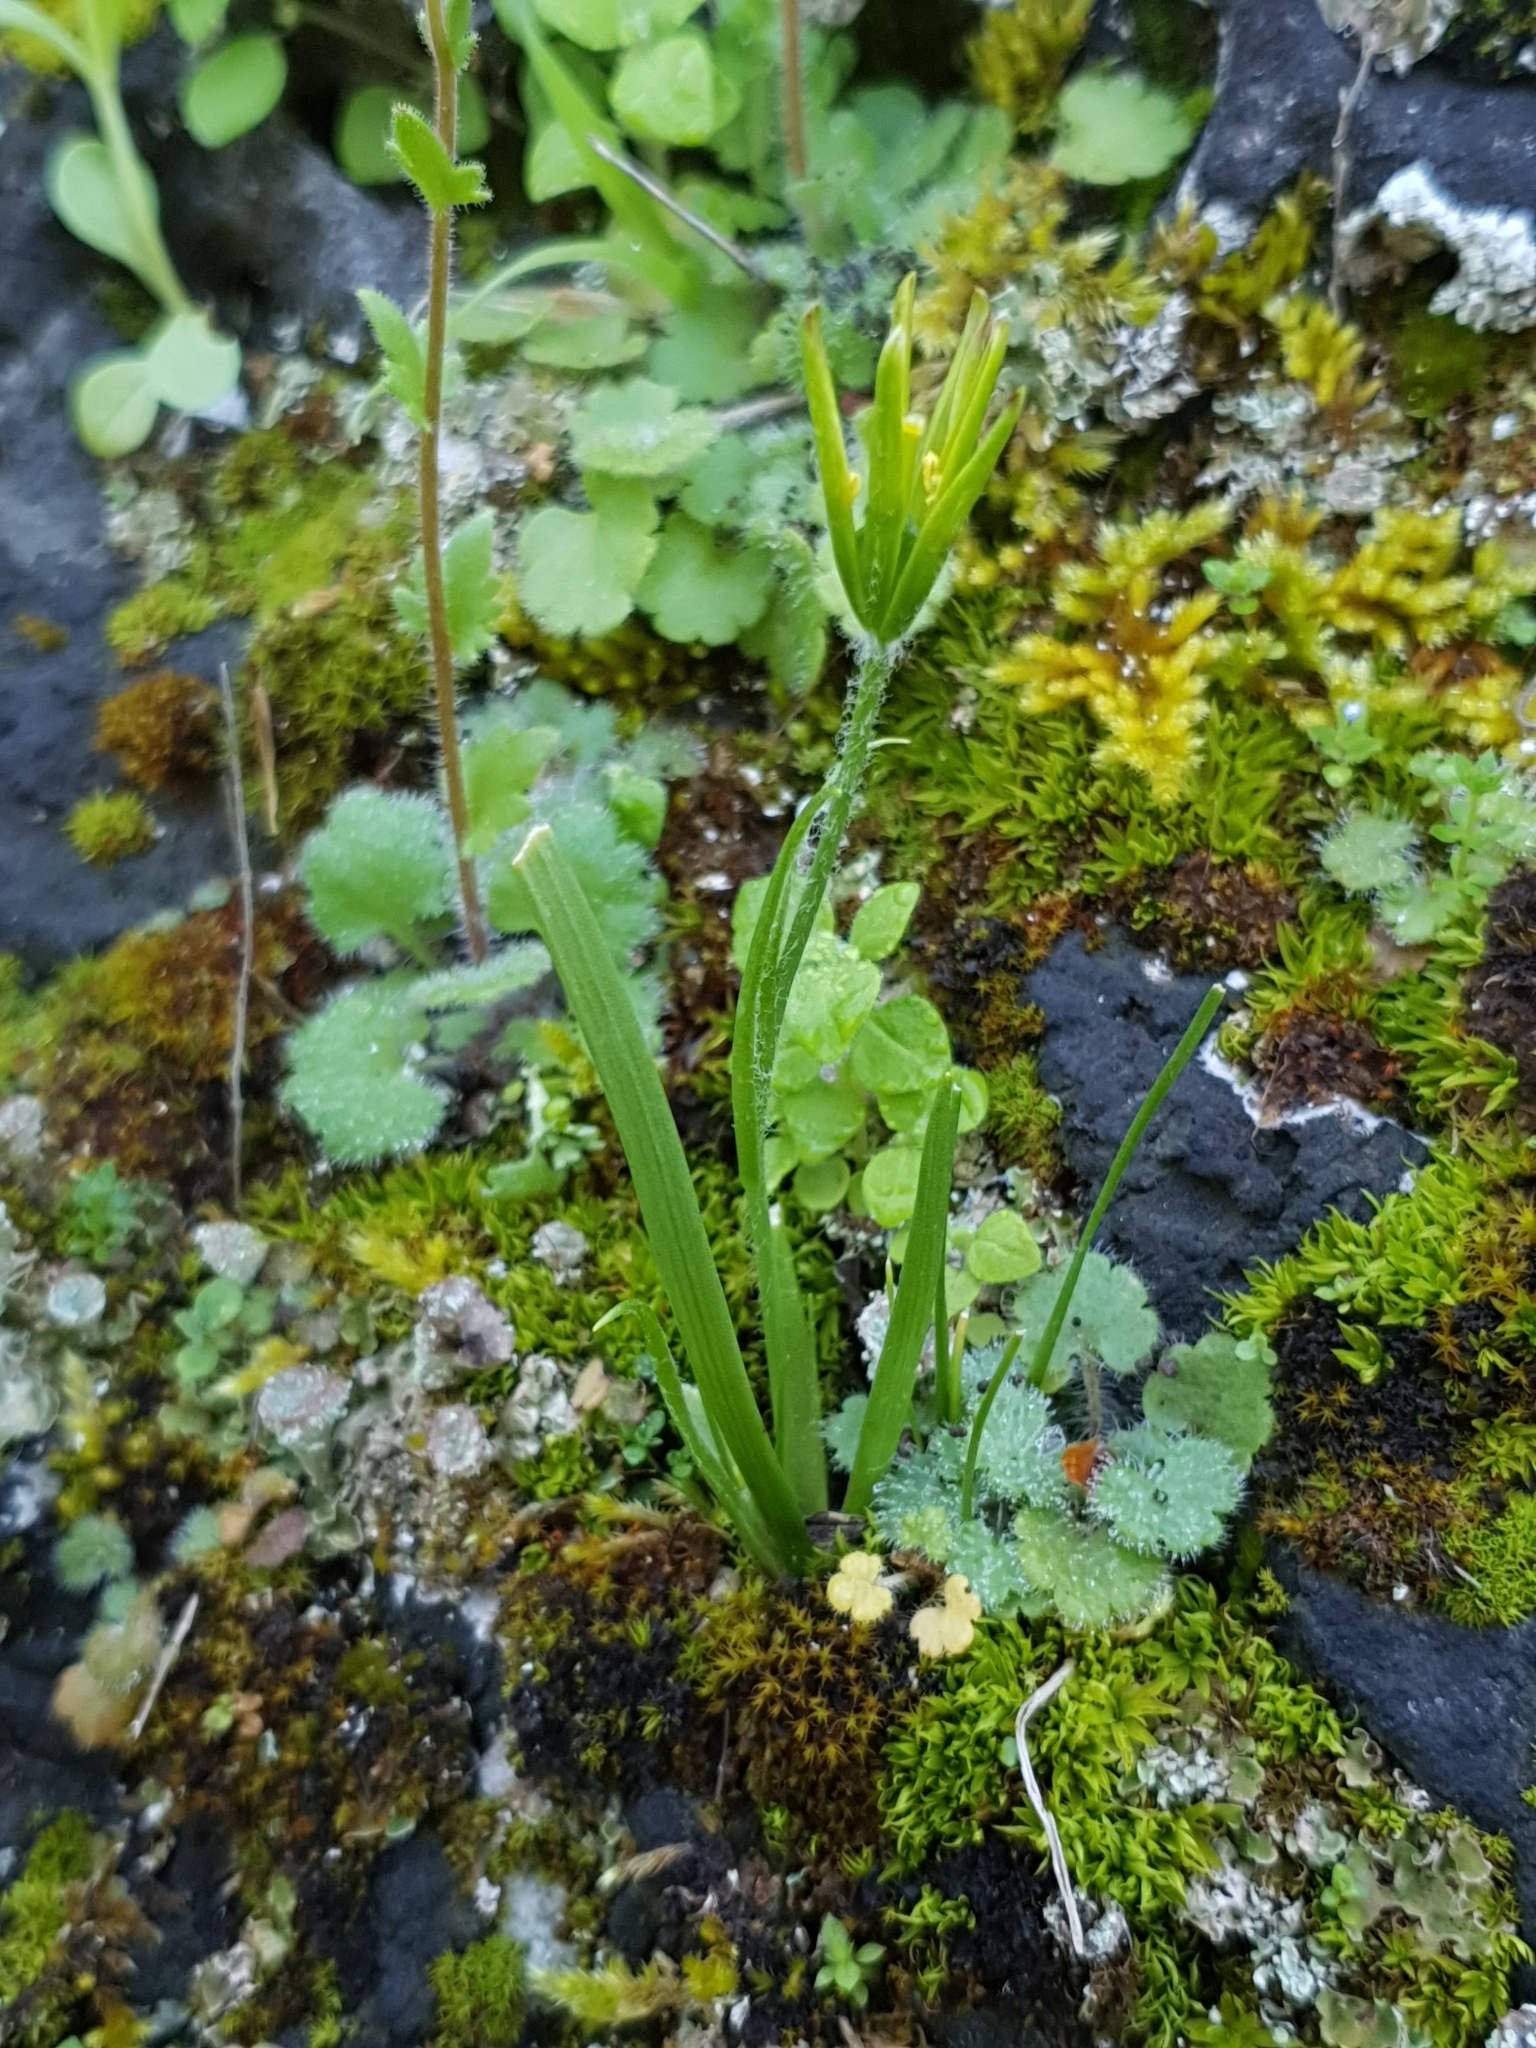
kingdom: Plantae
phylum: Tracheophyta
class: Liliopsida
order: Liliales
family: Liliaceae
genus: Gagea
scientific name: Gagea lacaitae
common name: Gagée de lacaita
